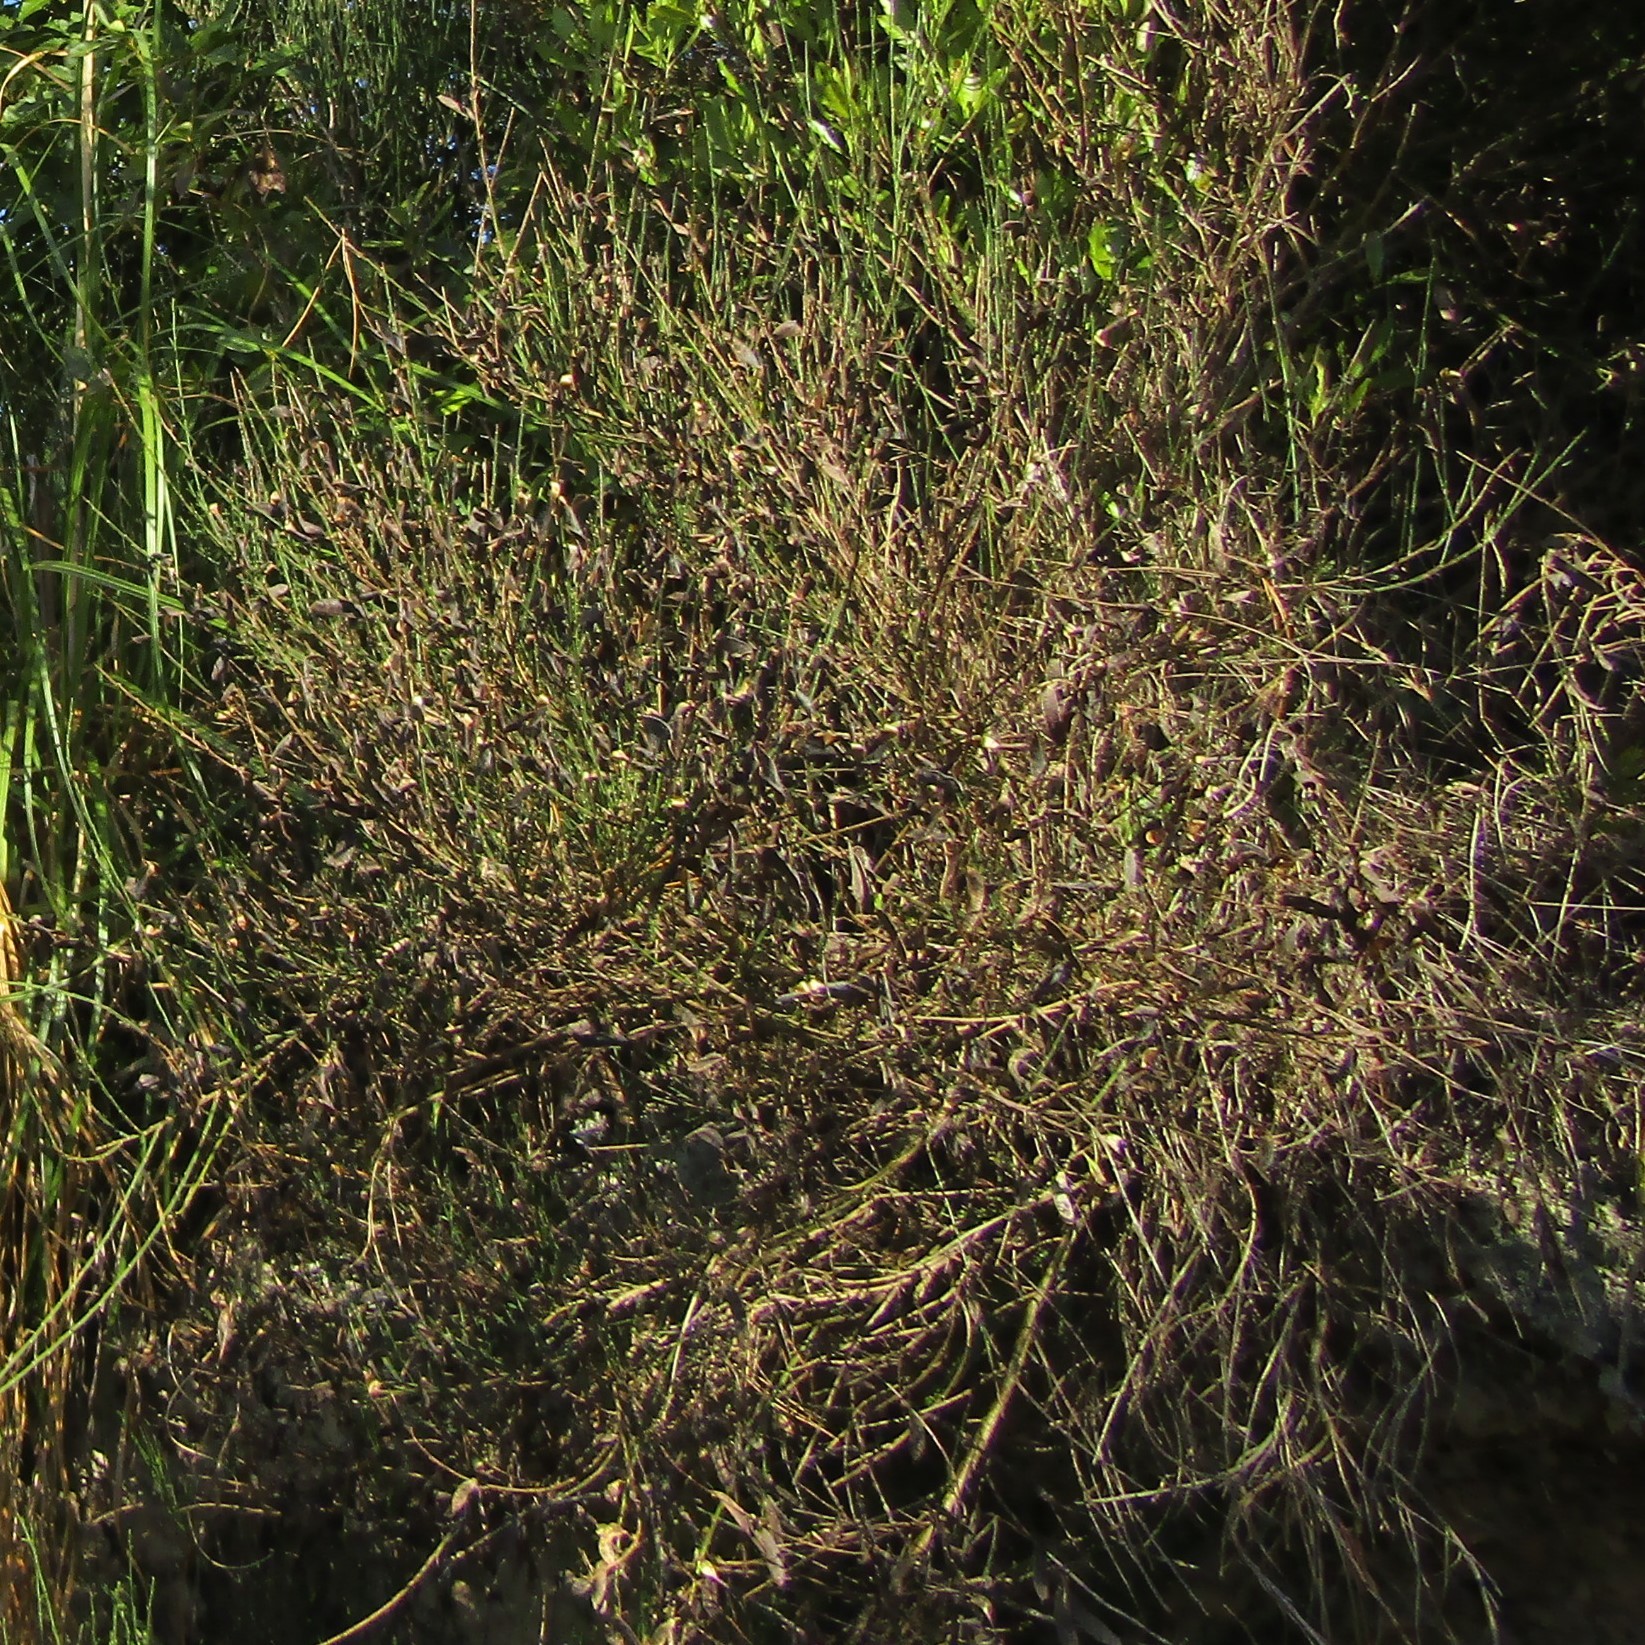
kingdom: Plantae
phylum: Tracheophyta
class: Magnoliopsida
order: Fabales
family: Fabaceae
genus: Cytisus
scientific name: Cytisus scoparius
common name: Scotch broom
